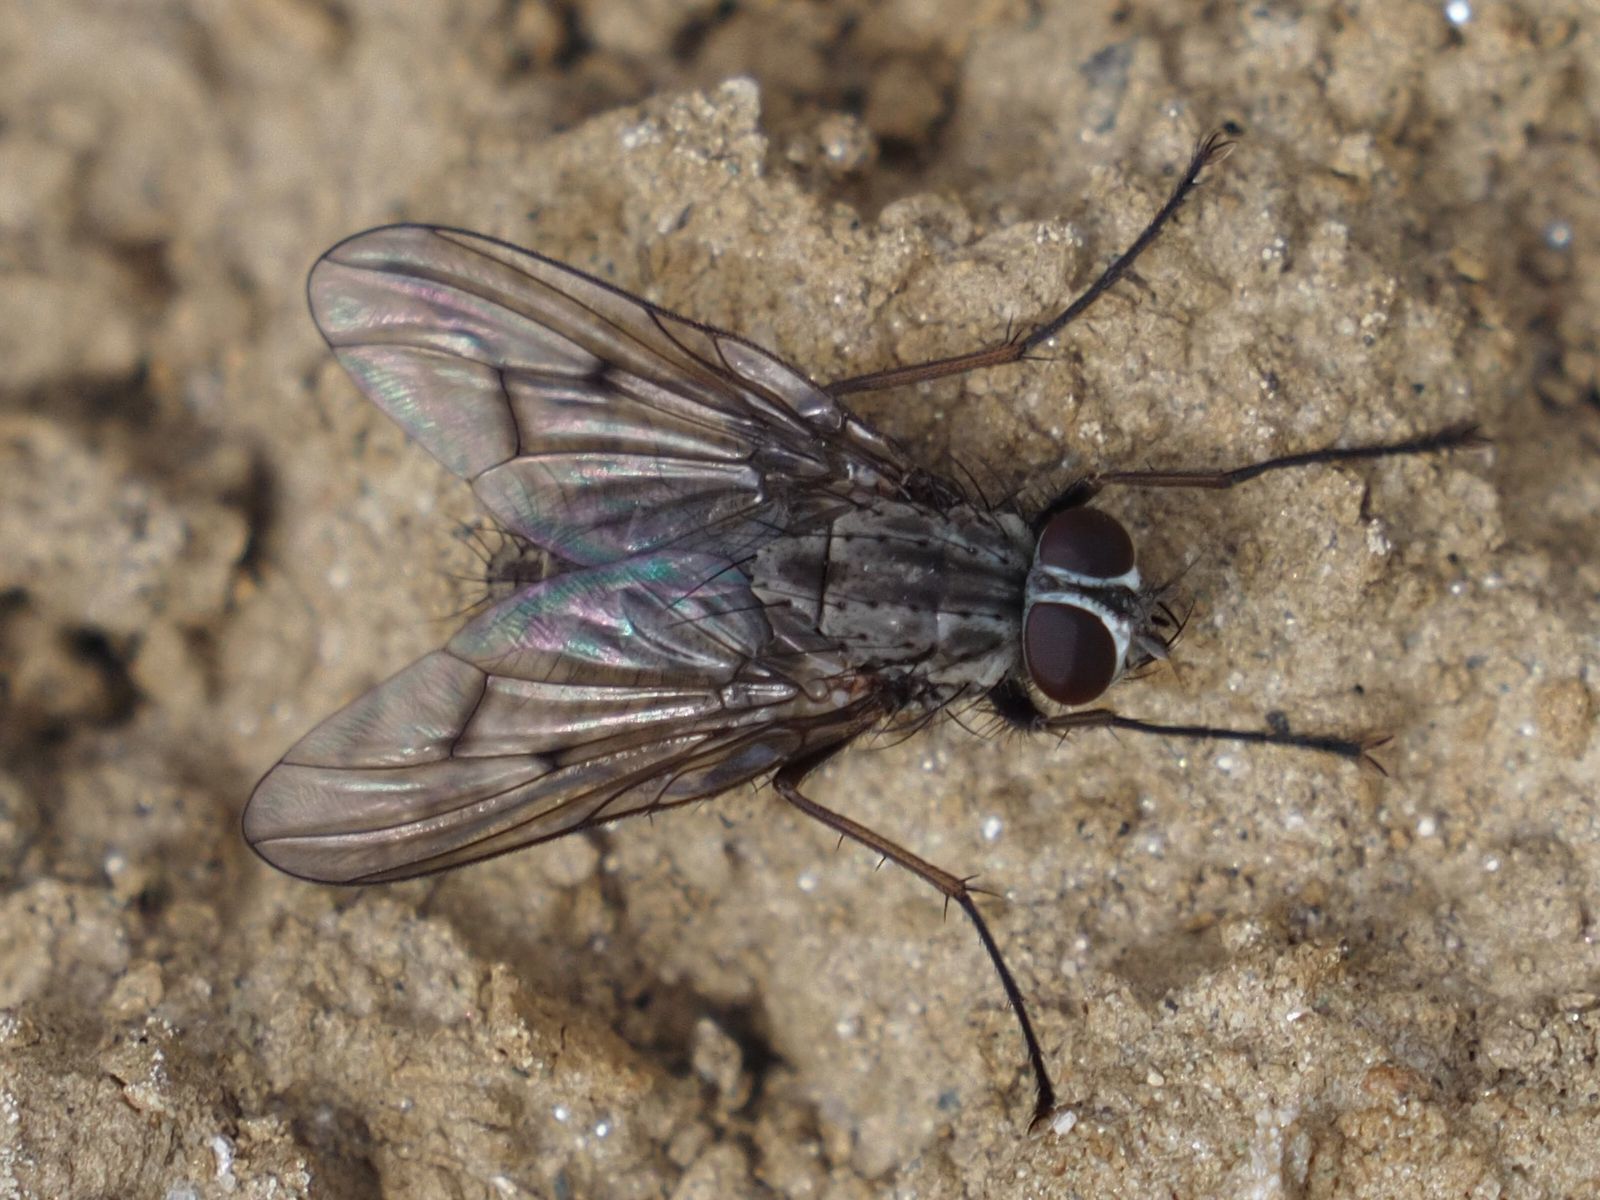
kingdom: Animalia
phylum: Arthropoda
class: Insecta
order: Diptera
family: Muscidae
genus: Phaonia
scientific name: Phaonia fuscata
